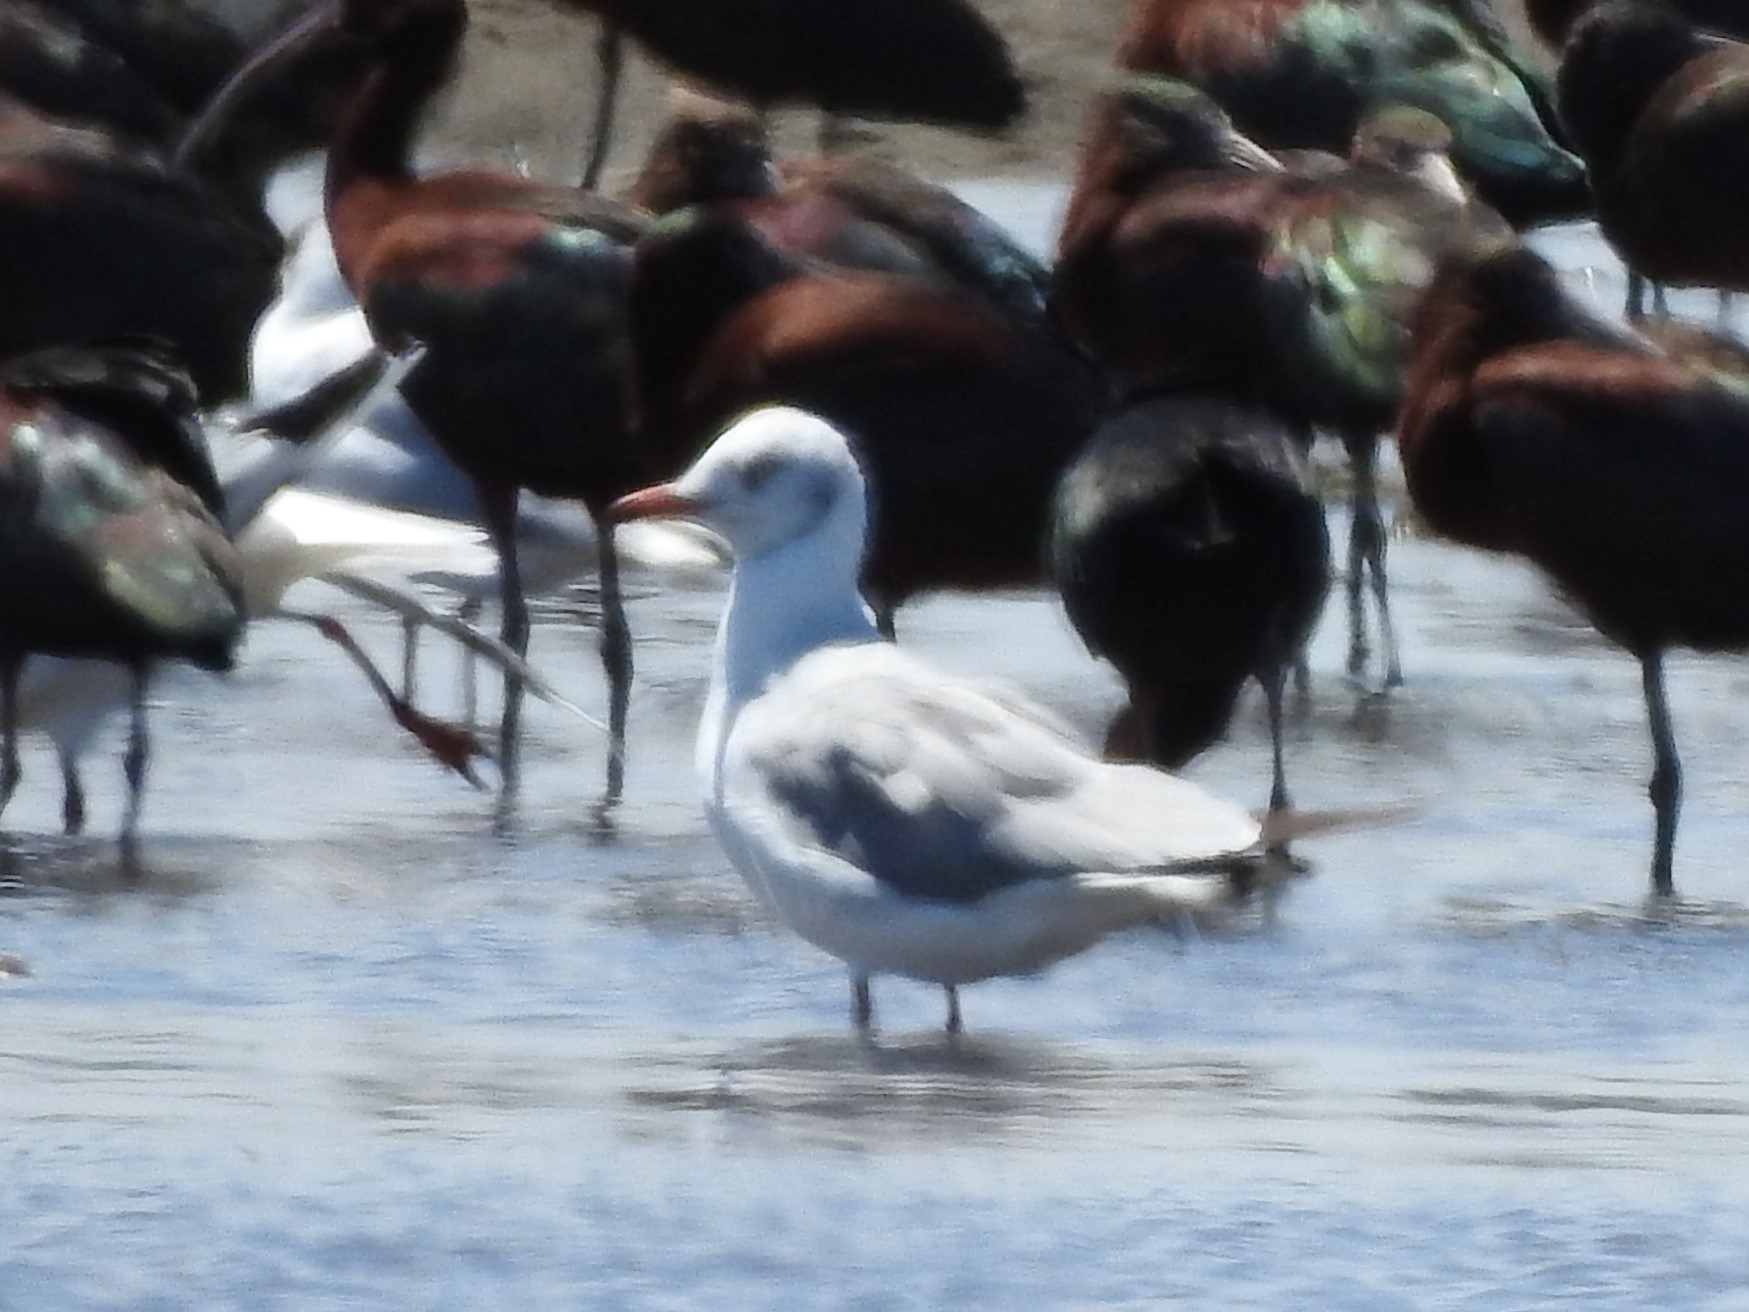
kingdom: Animalia
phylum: Chordata
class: Aves
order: Charadriiformes
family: Laridae
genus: Chroicocephalus
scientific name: Chroicocephalus cirrocephalus
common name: Grey-headed gull
